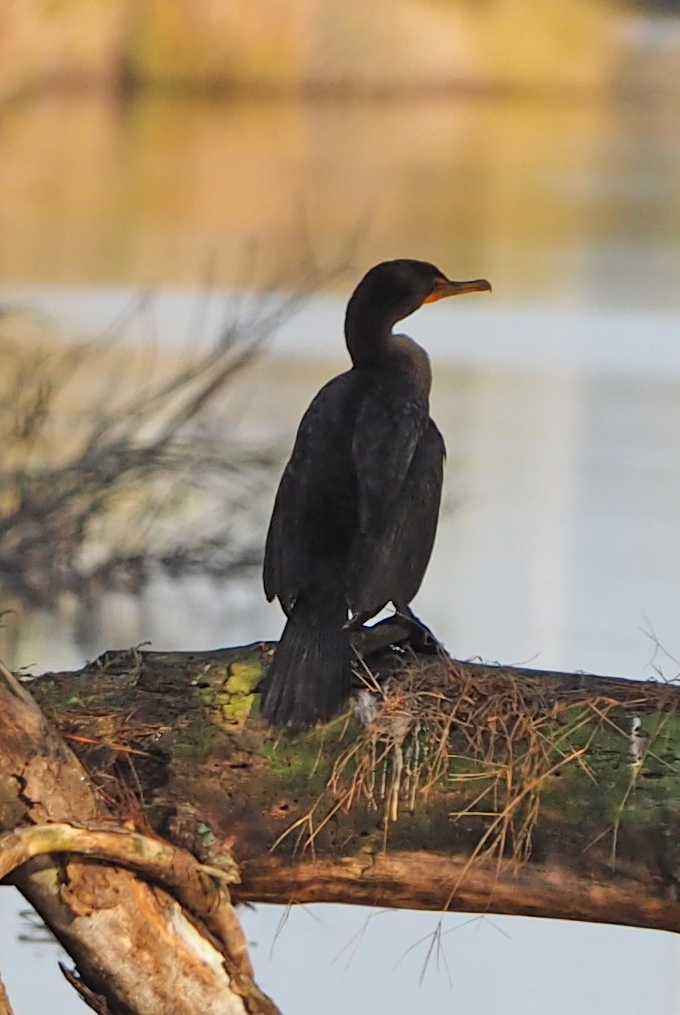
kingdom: Animalia
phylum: Chordata
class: Aves
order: Suliformes
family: Phalacrocoracidae
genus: Phalacrocorax
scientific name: Phalacrocorax auritus
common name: Double-crested cormorant
